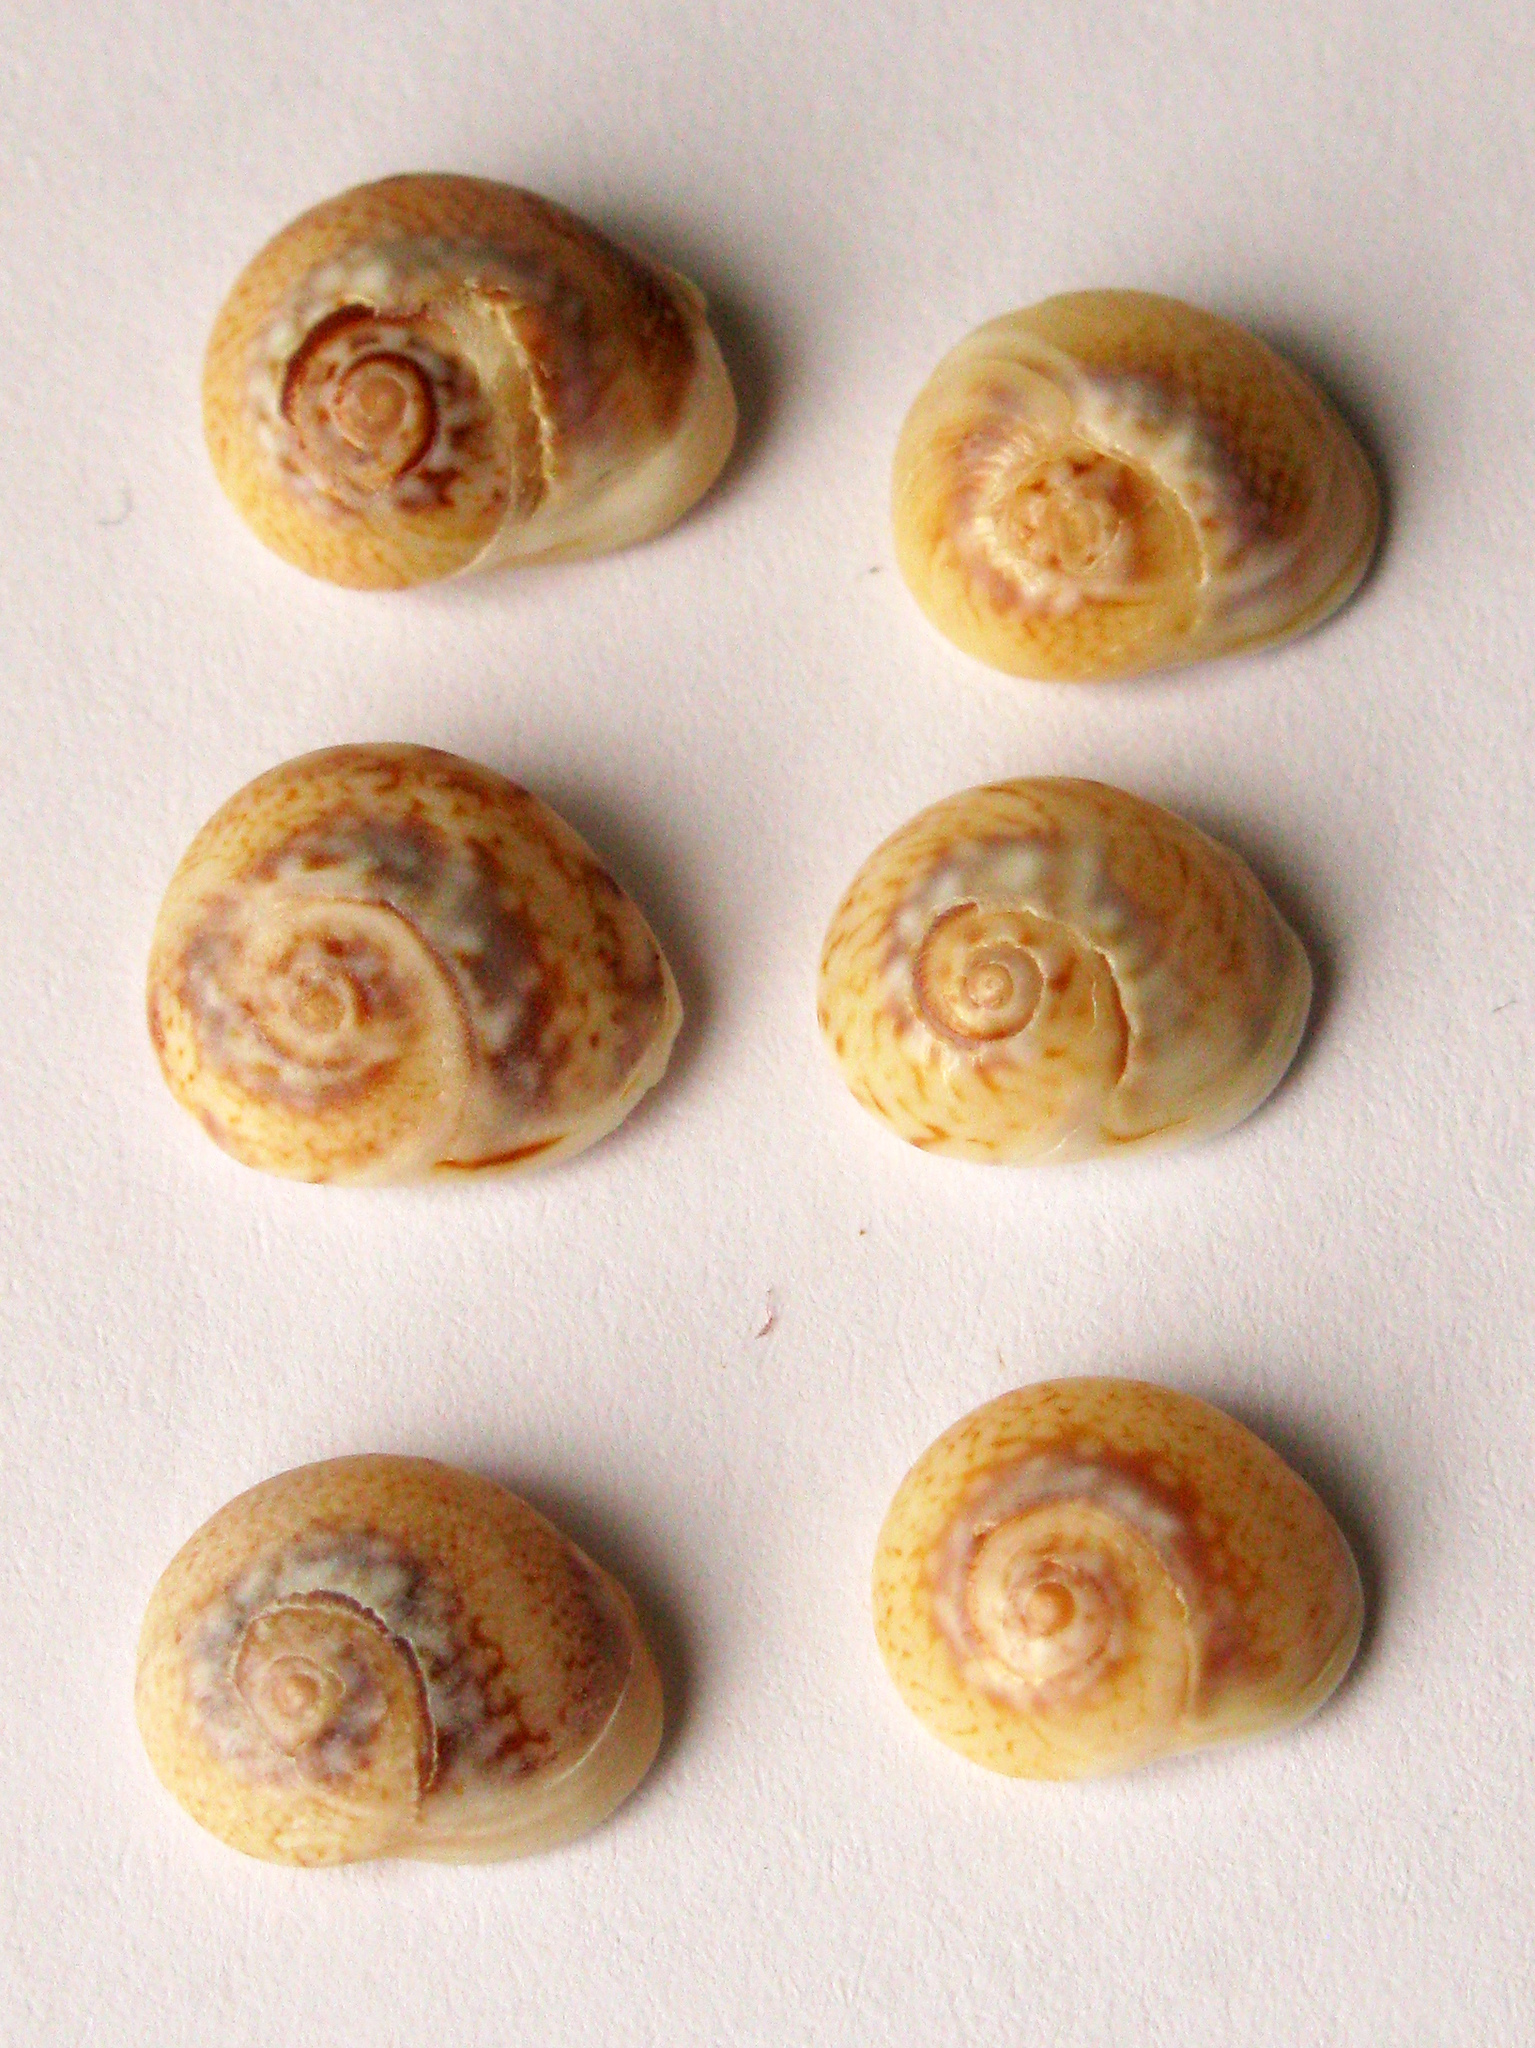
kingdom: Animalia
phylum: Mollusca
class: Gastropoda
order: Neogastropoda
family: Nassariidae
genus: Tritia
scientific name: Tritia pellucida
